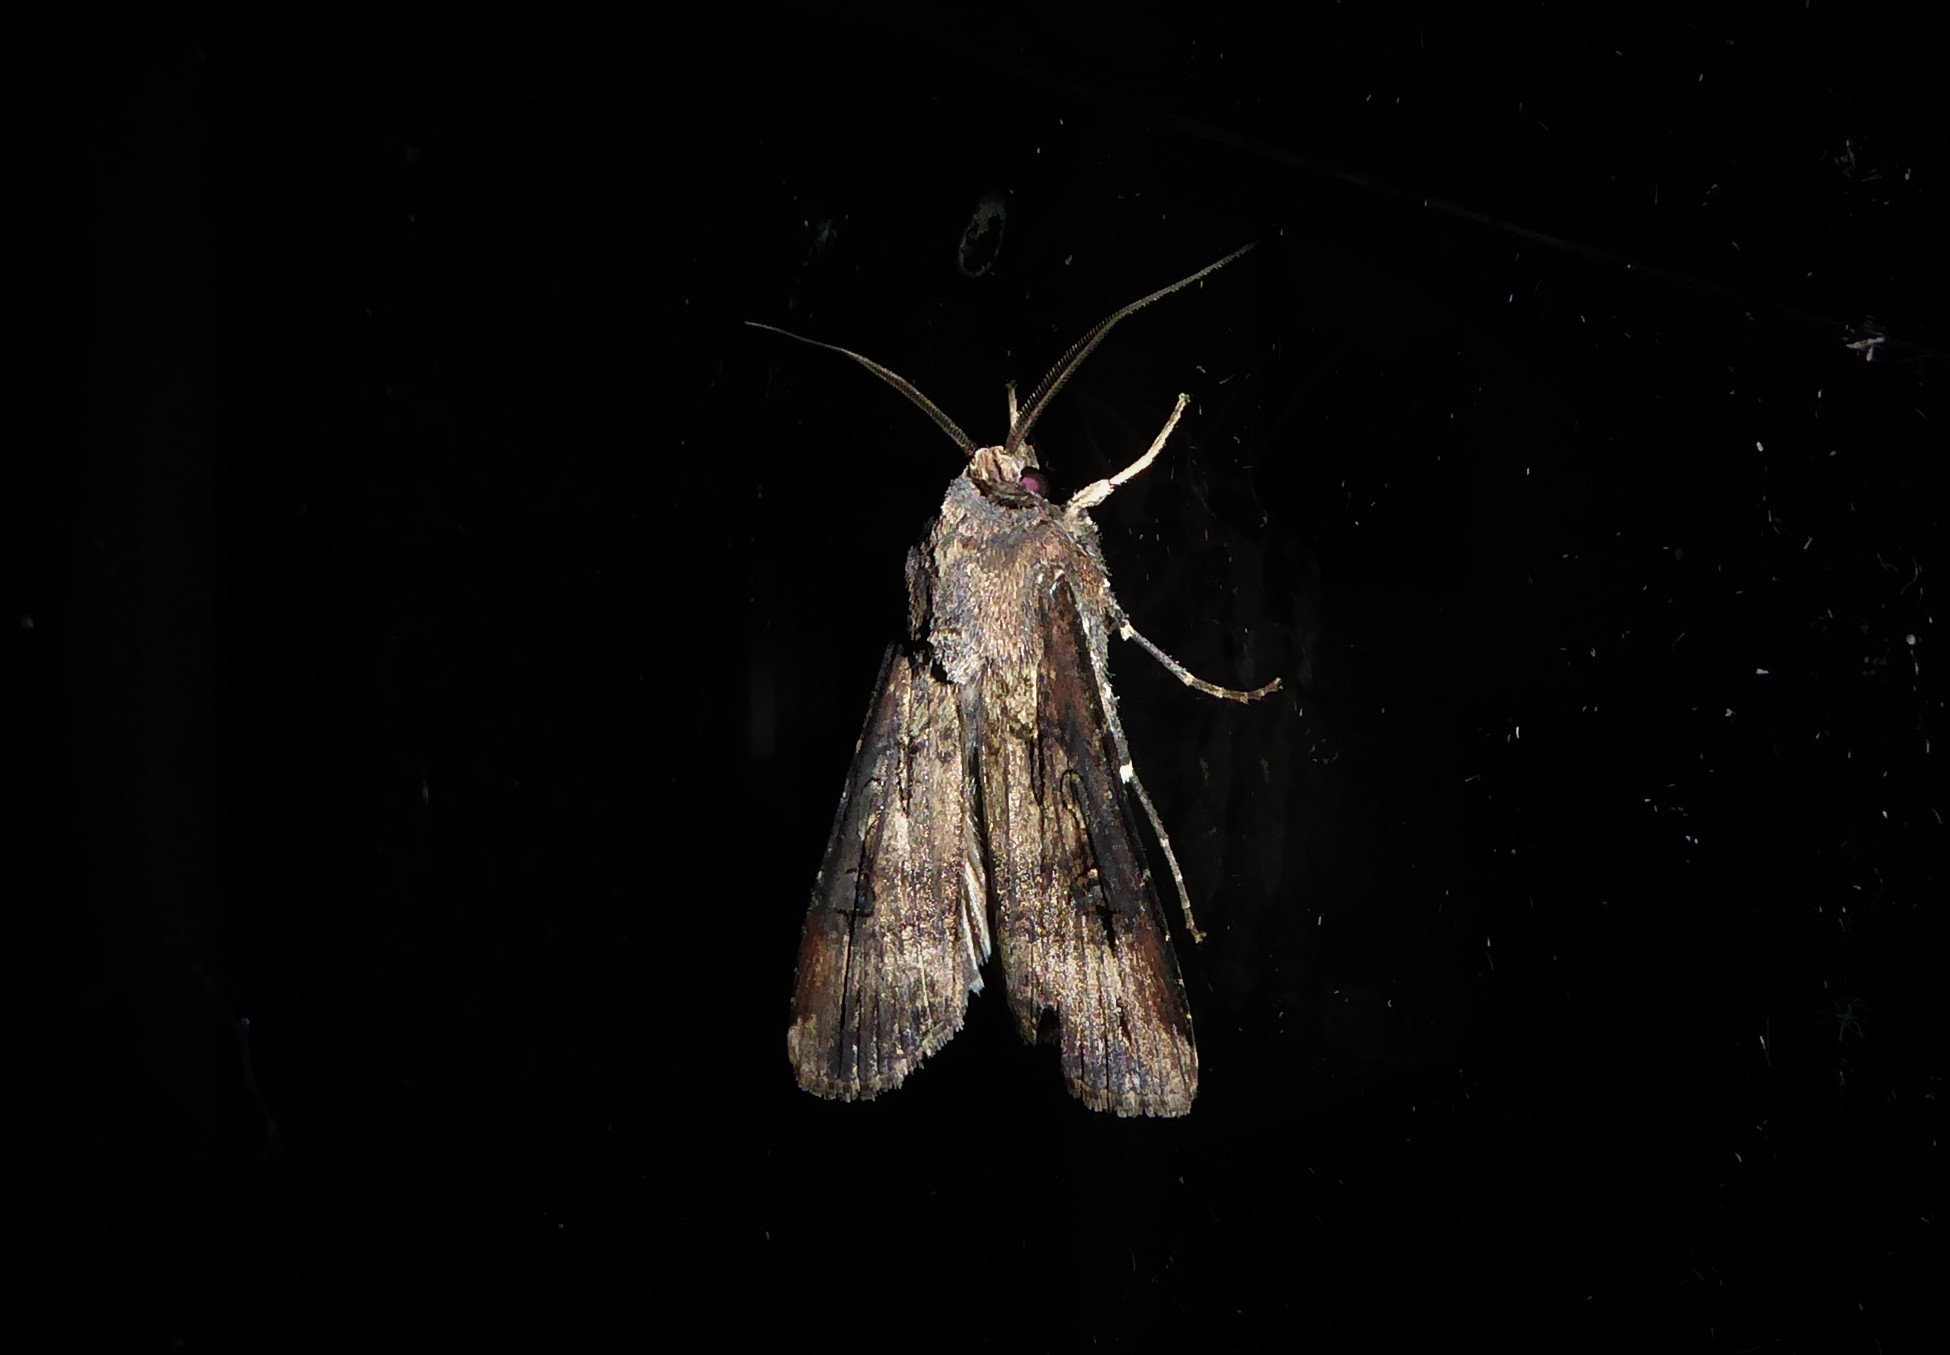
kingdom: Animalia
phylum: Arthropoda
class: Insecta
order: Lepidoptera
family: Noctuidae
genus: Agrotis
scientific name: Agrotis ipsilon
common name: Dark sword-grass
